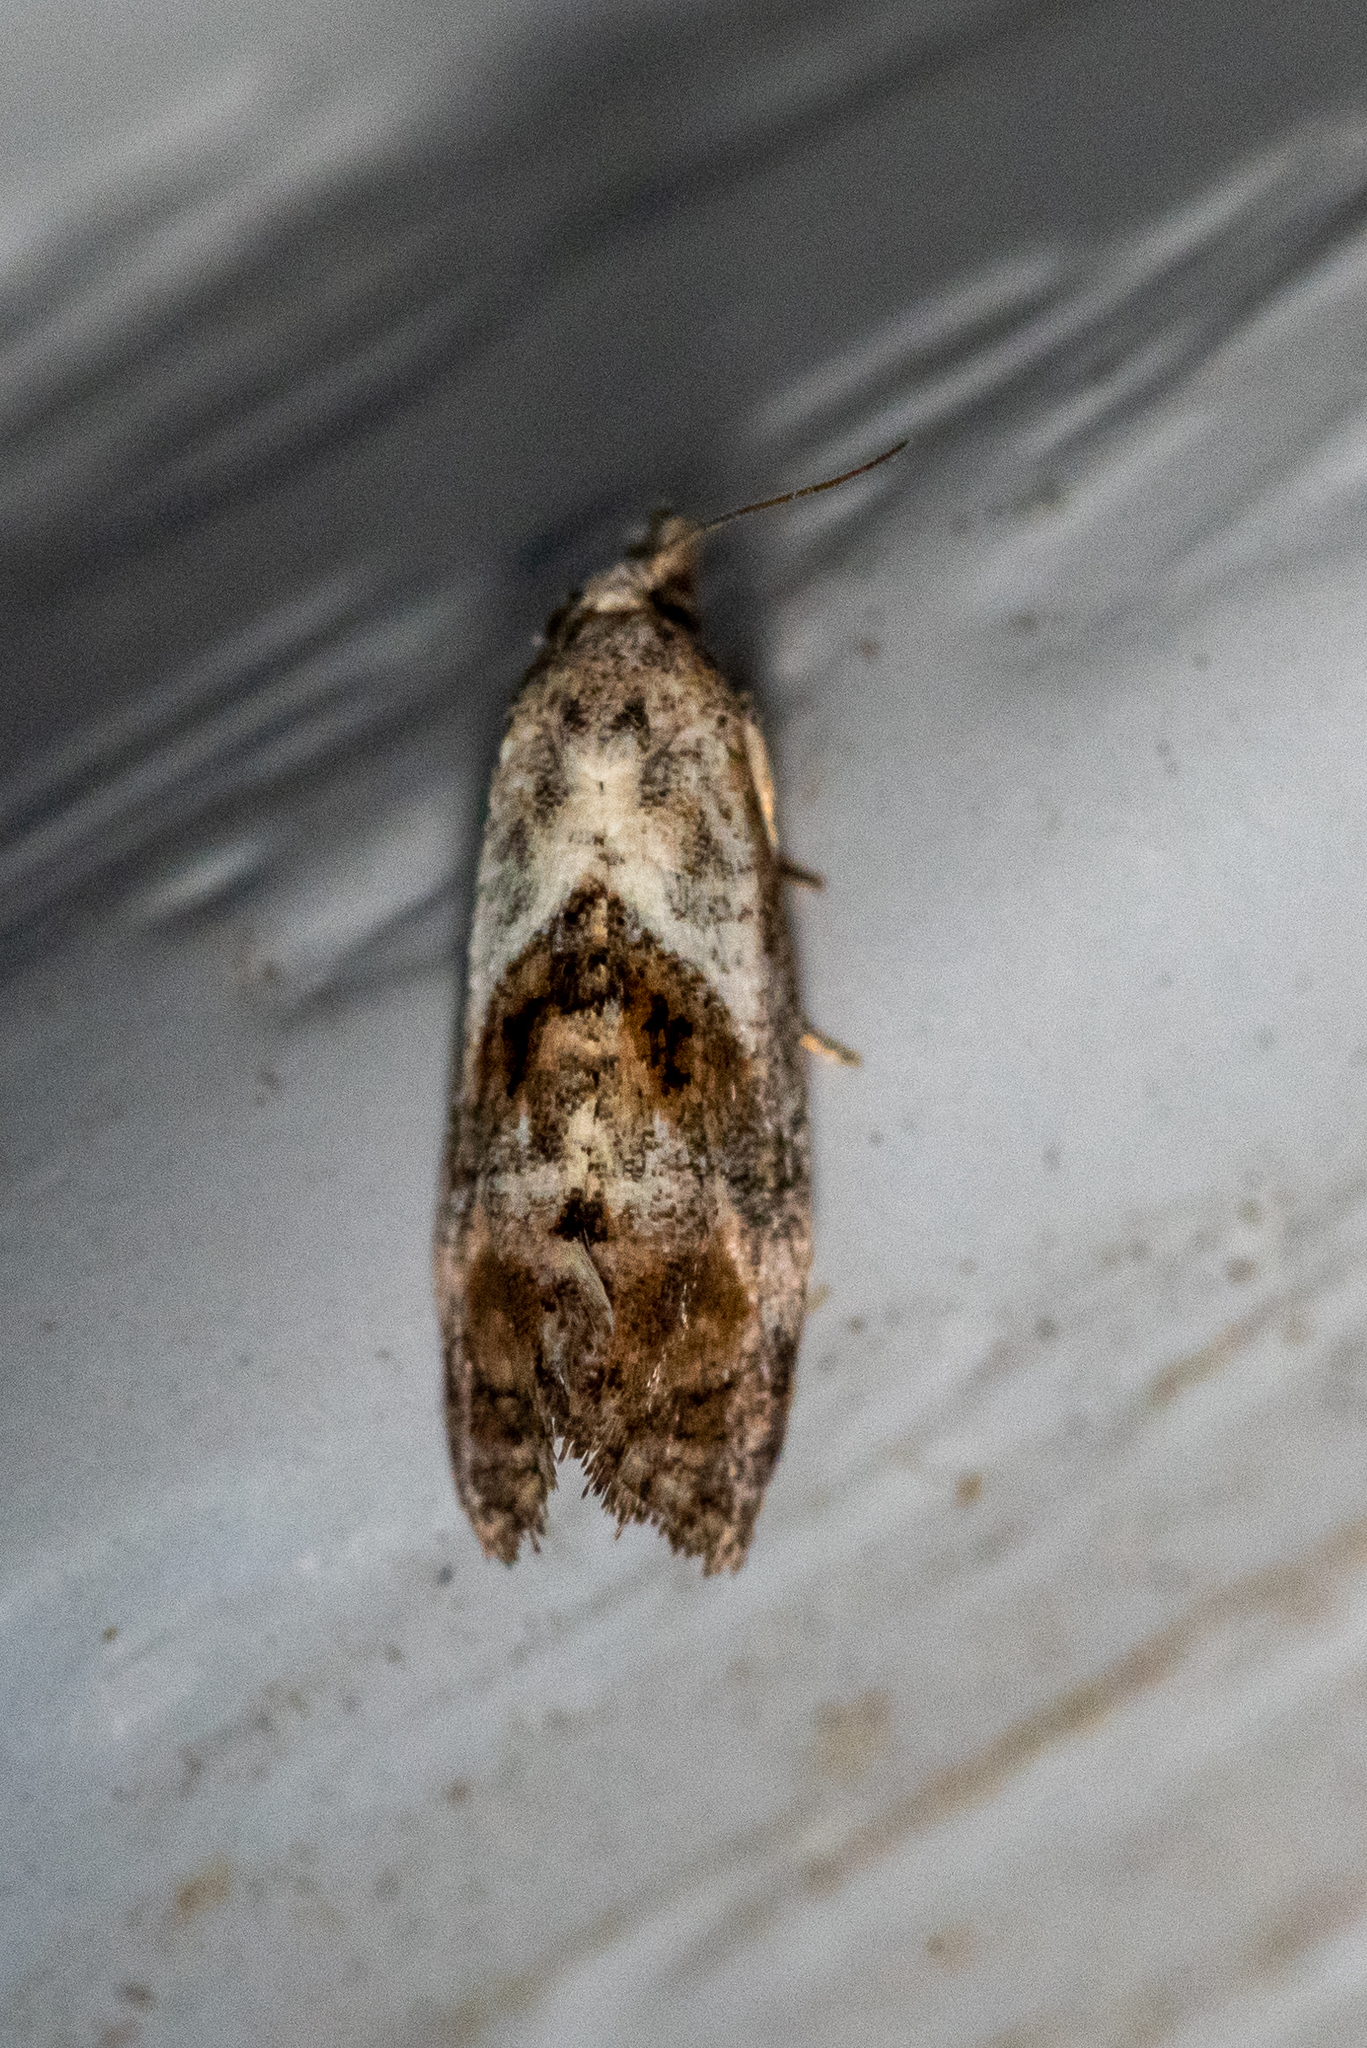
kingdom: Animalia
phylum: Arthropoda
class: Insecta
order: Lepidoptera
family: Tortricidae
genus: Cochylis
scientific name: Cochylis Cochylichroa temerana
